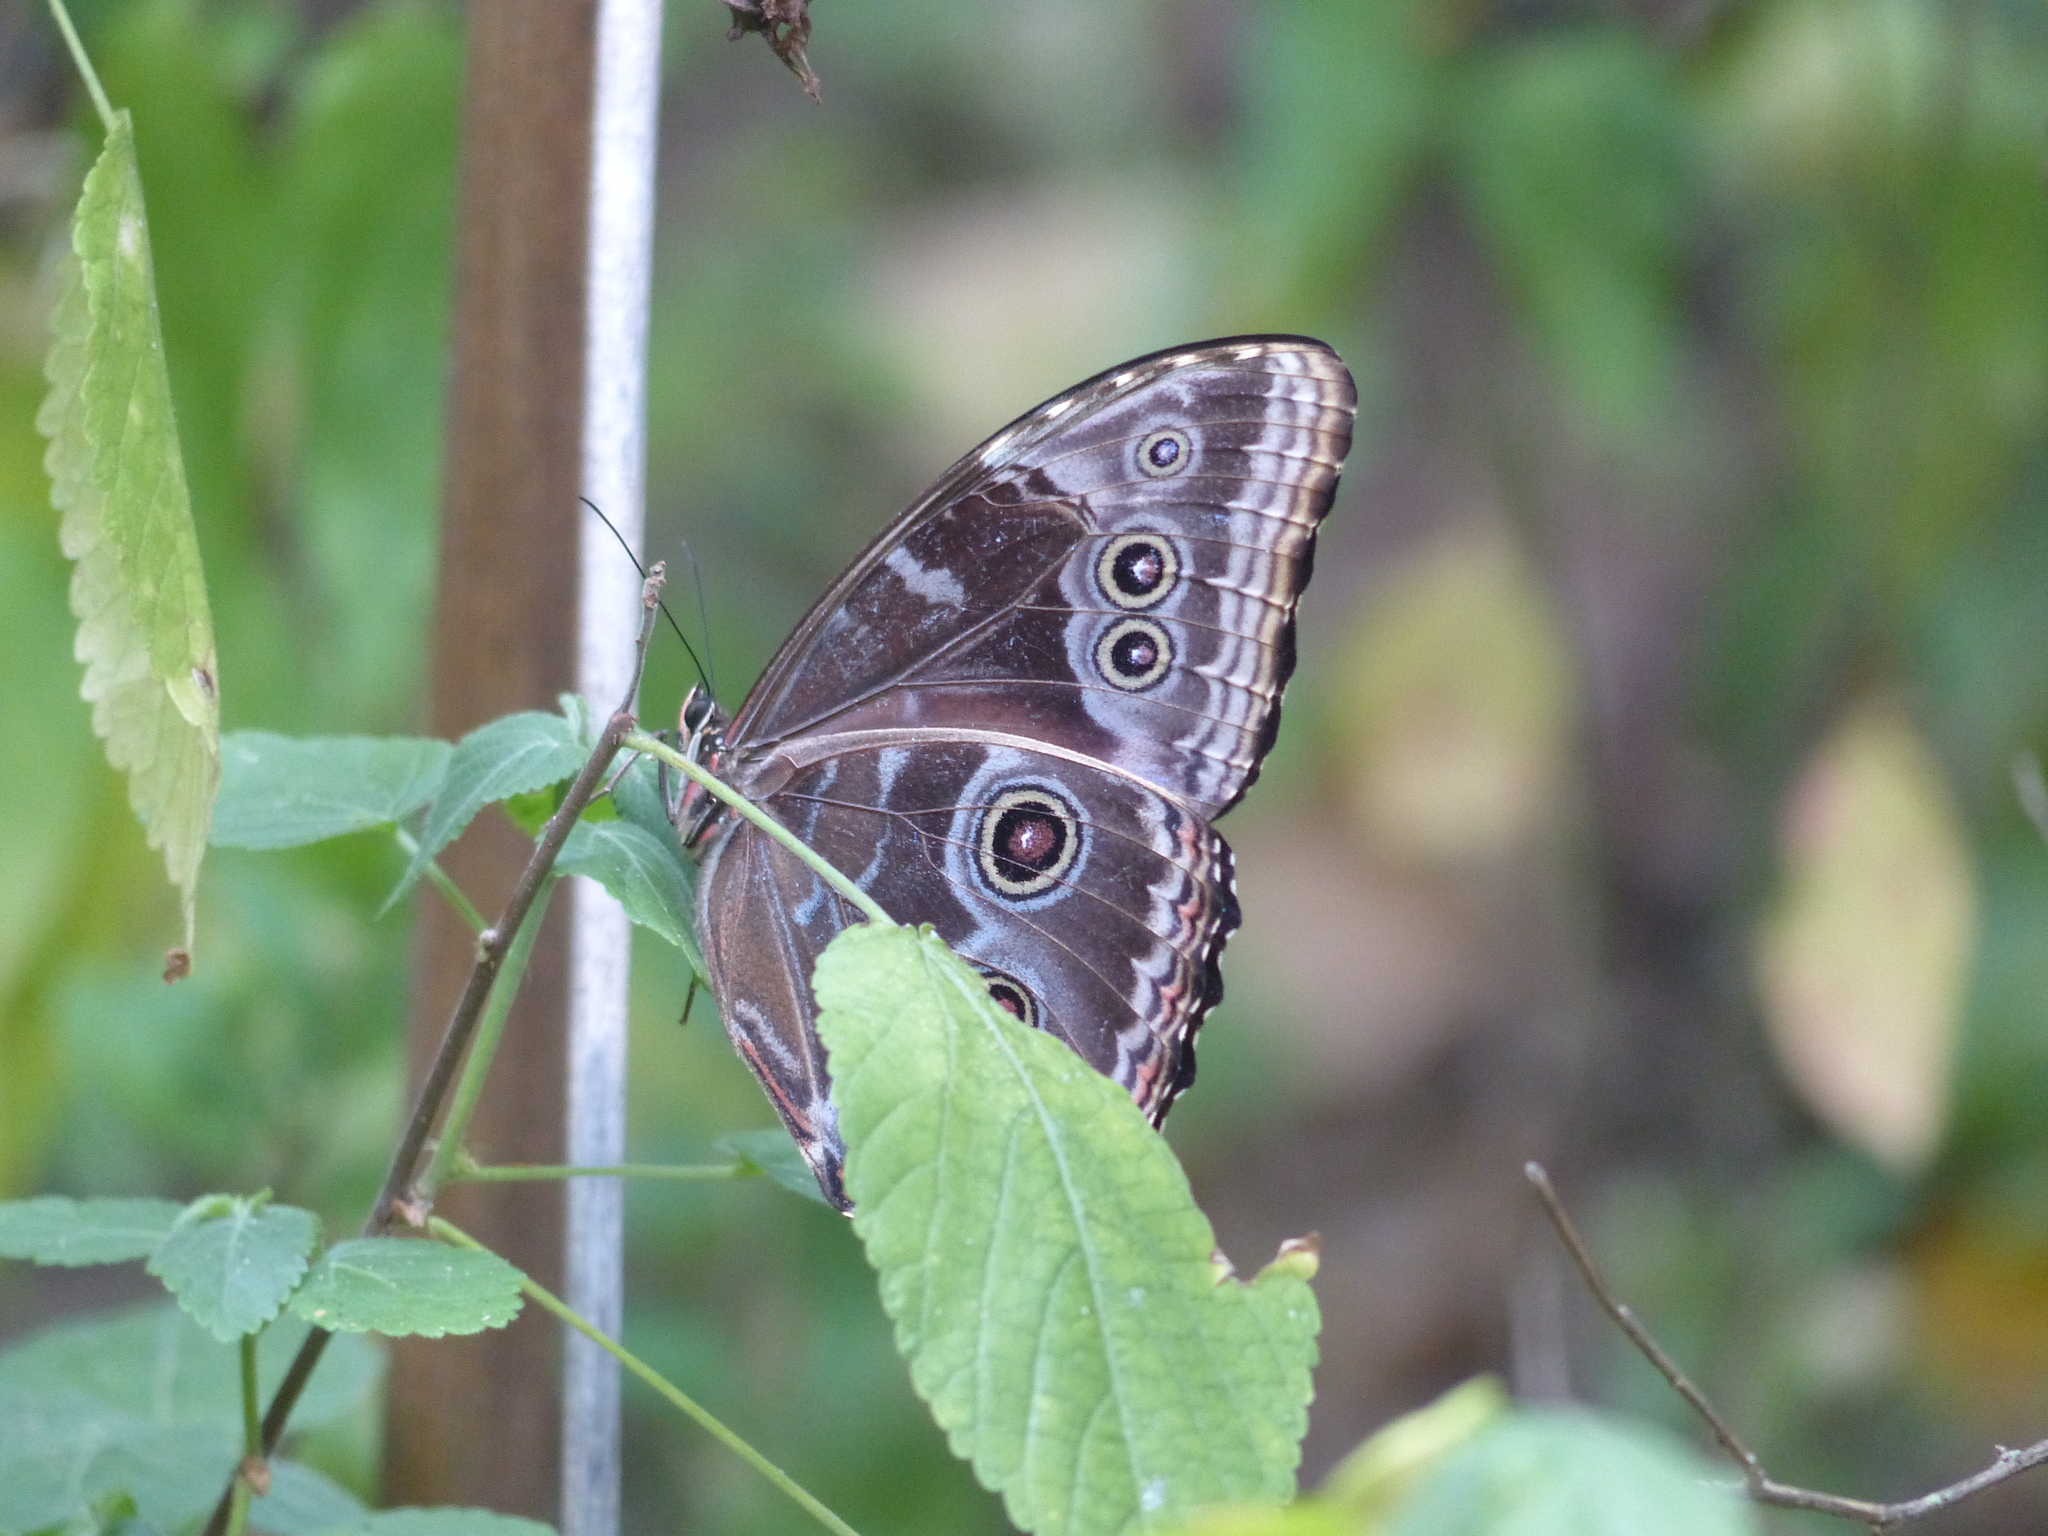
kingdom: Animalia
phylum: Arthropoda
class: Insecta
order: Lepidoptera
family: Nymphalidae
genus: Morpho
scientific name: Morpho helenor
